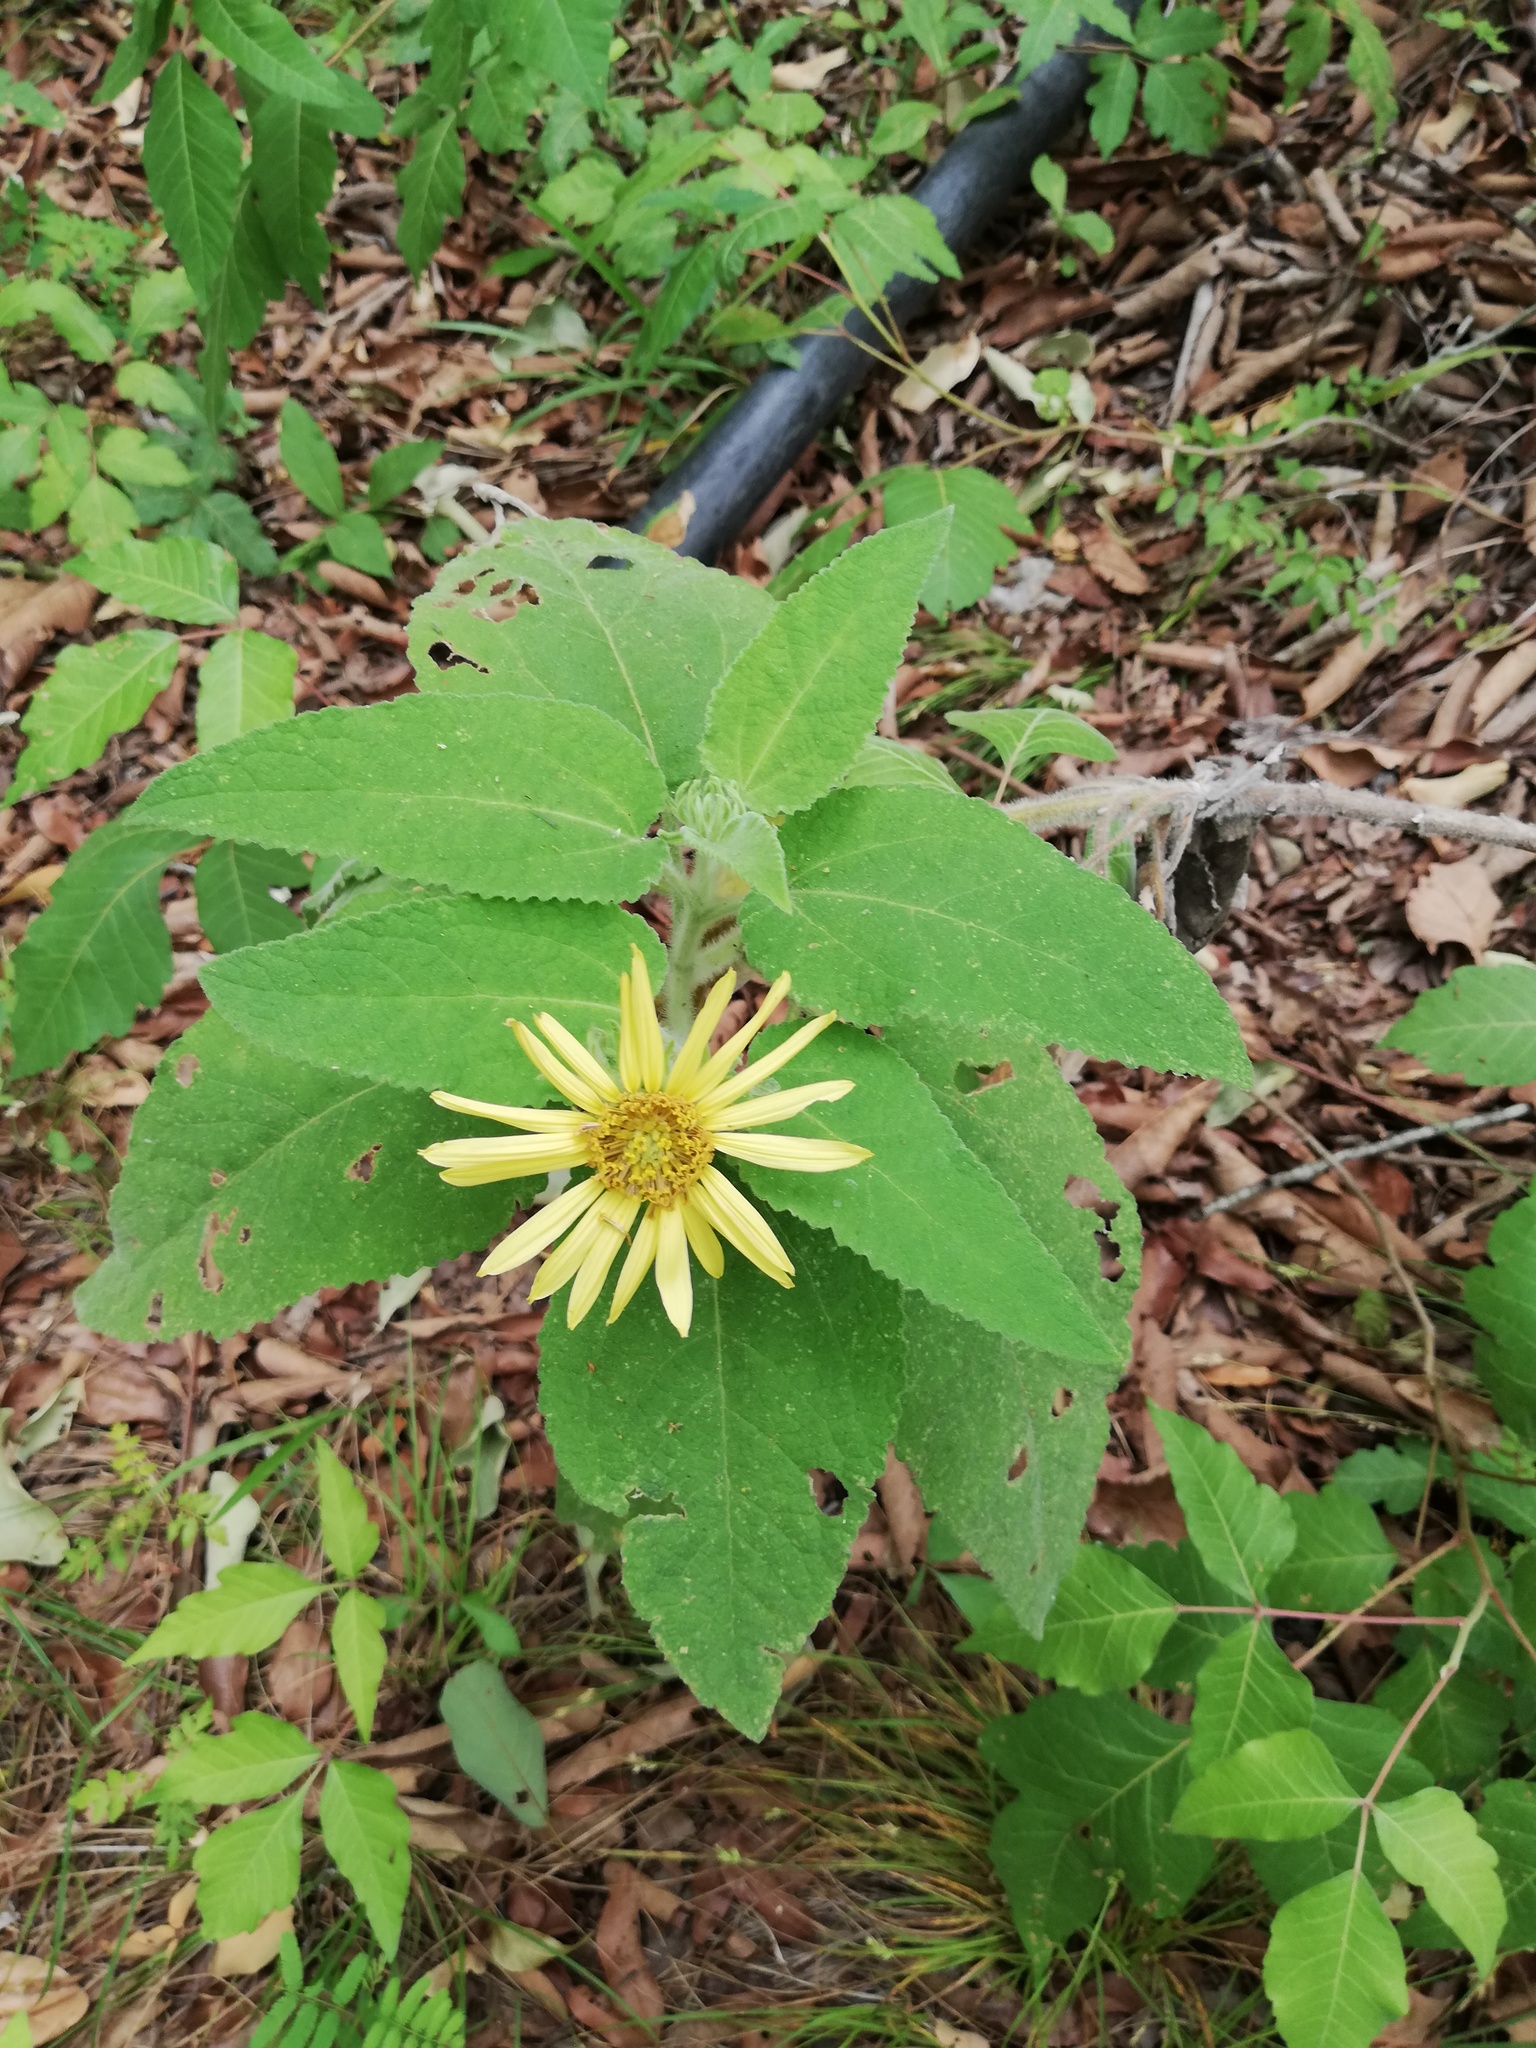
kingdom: Plantae
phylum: Tracheophyta
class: Magnoliopsida
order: Asterales
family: Asteraceae
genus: Vigethia
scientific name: Vigethia mexicana
